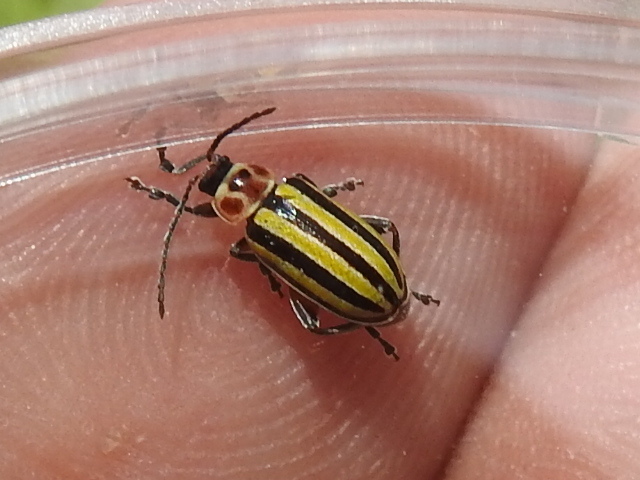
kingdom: Animalia
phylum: Arthropoda
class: Insecta
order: Coleoptera
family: Chrysomelidae
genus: Disonycha
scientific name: Disonycha fumata
